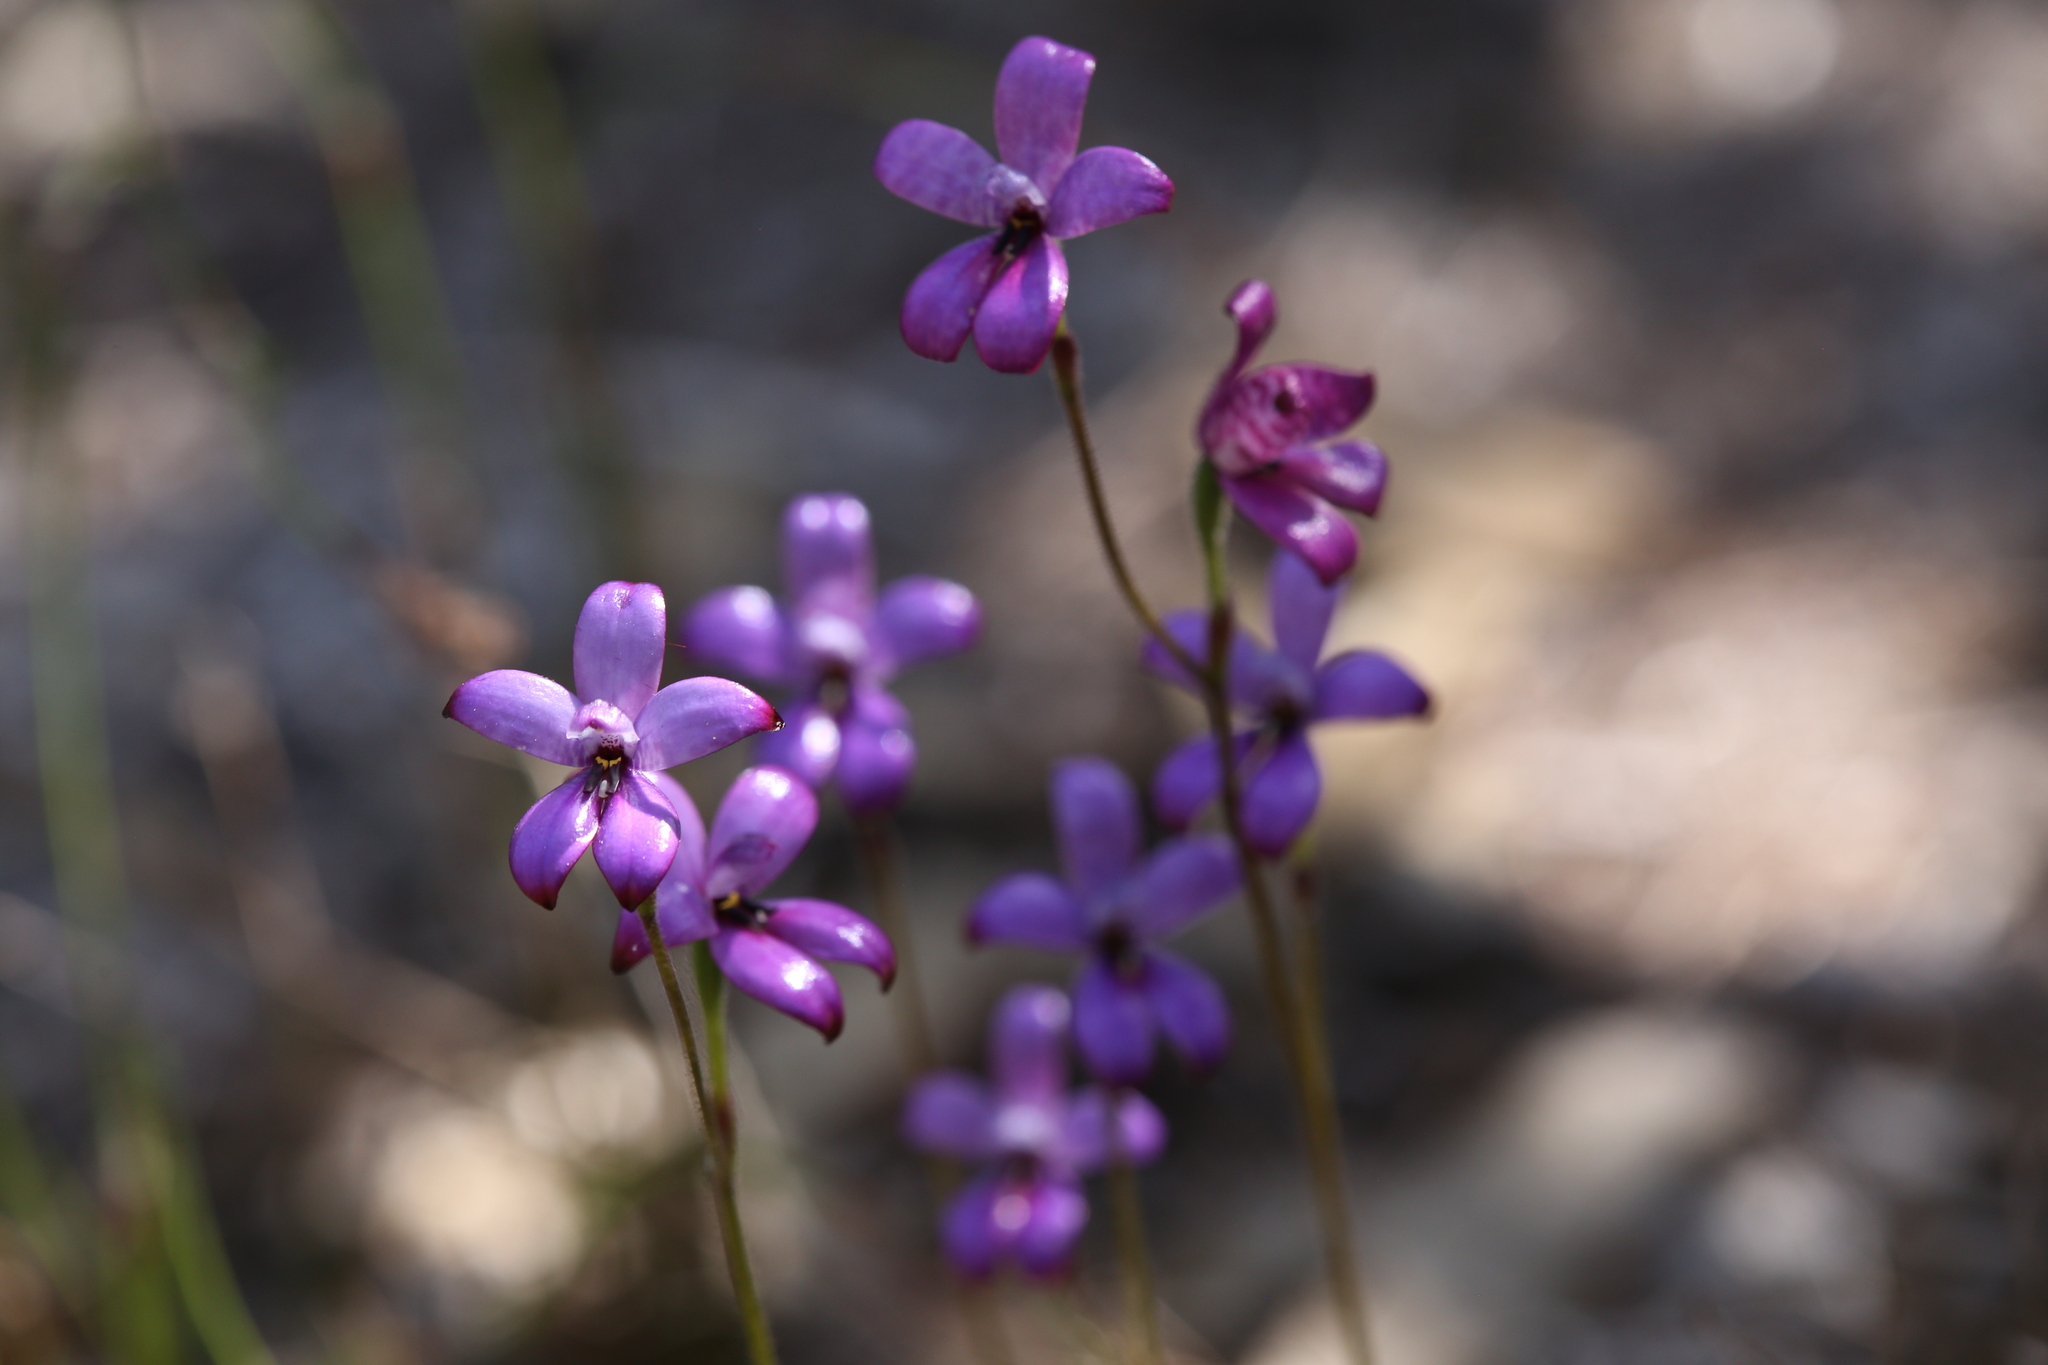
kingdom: Plantae
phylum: Tracheophyta
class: Liliopsida
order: Asparagales
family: Orchidaceae
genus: Caladenia
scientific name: Caladenia brunonis
